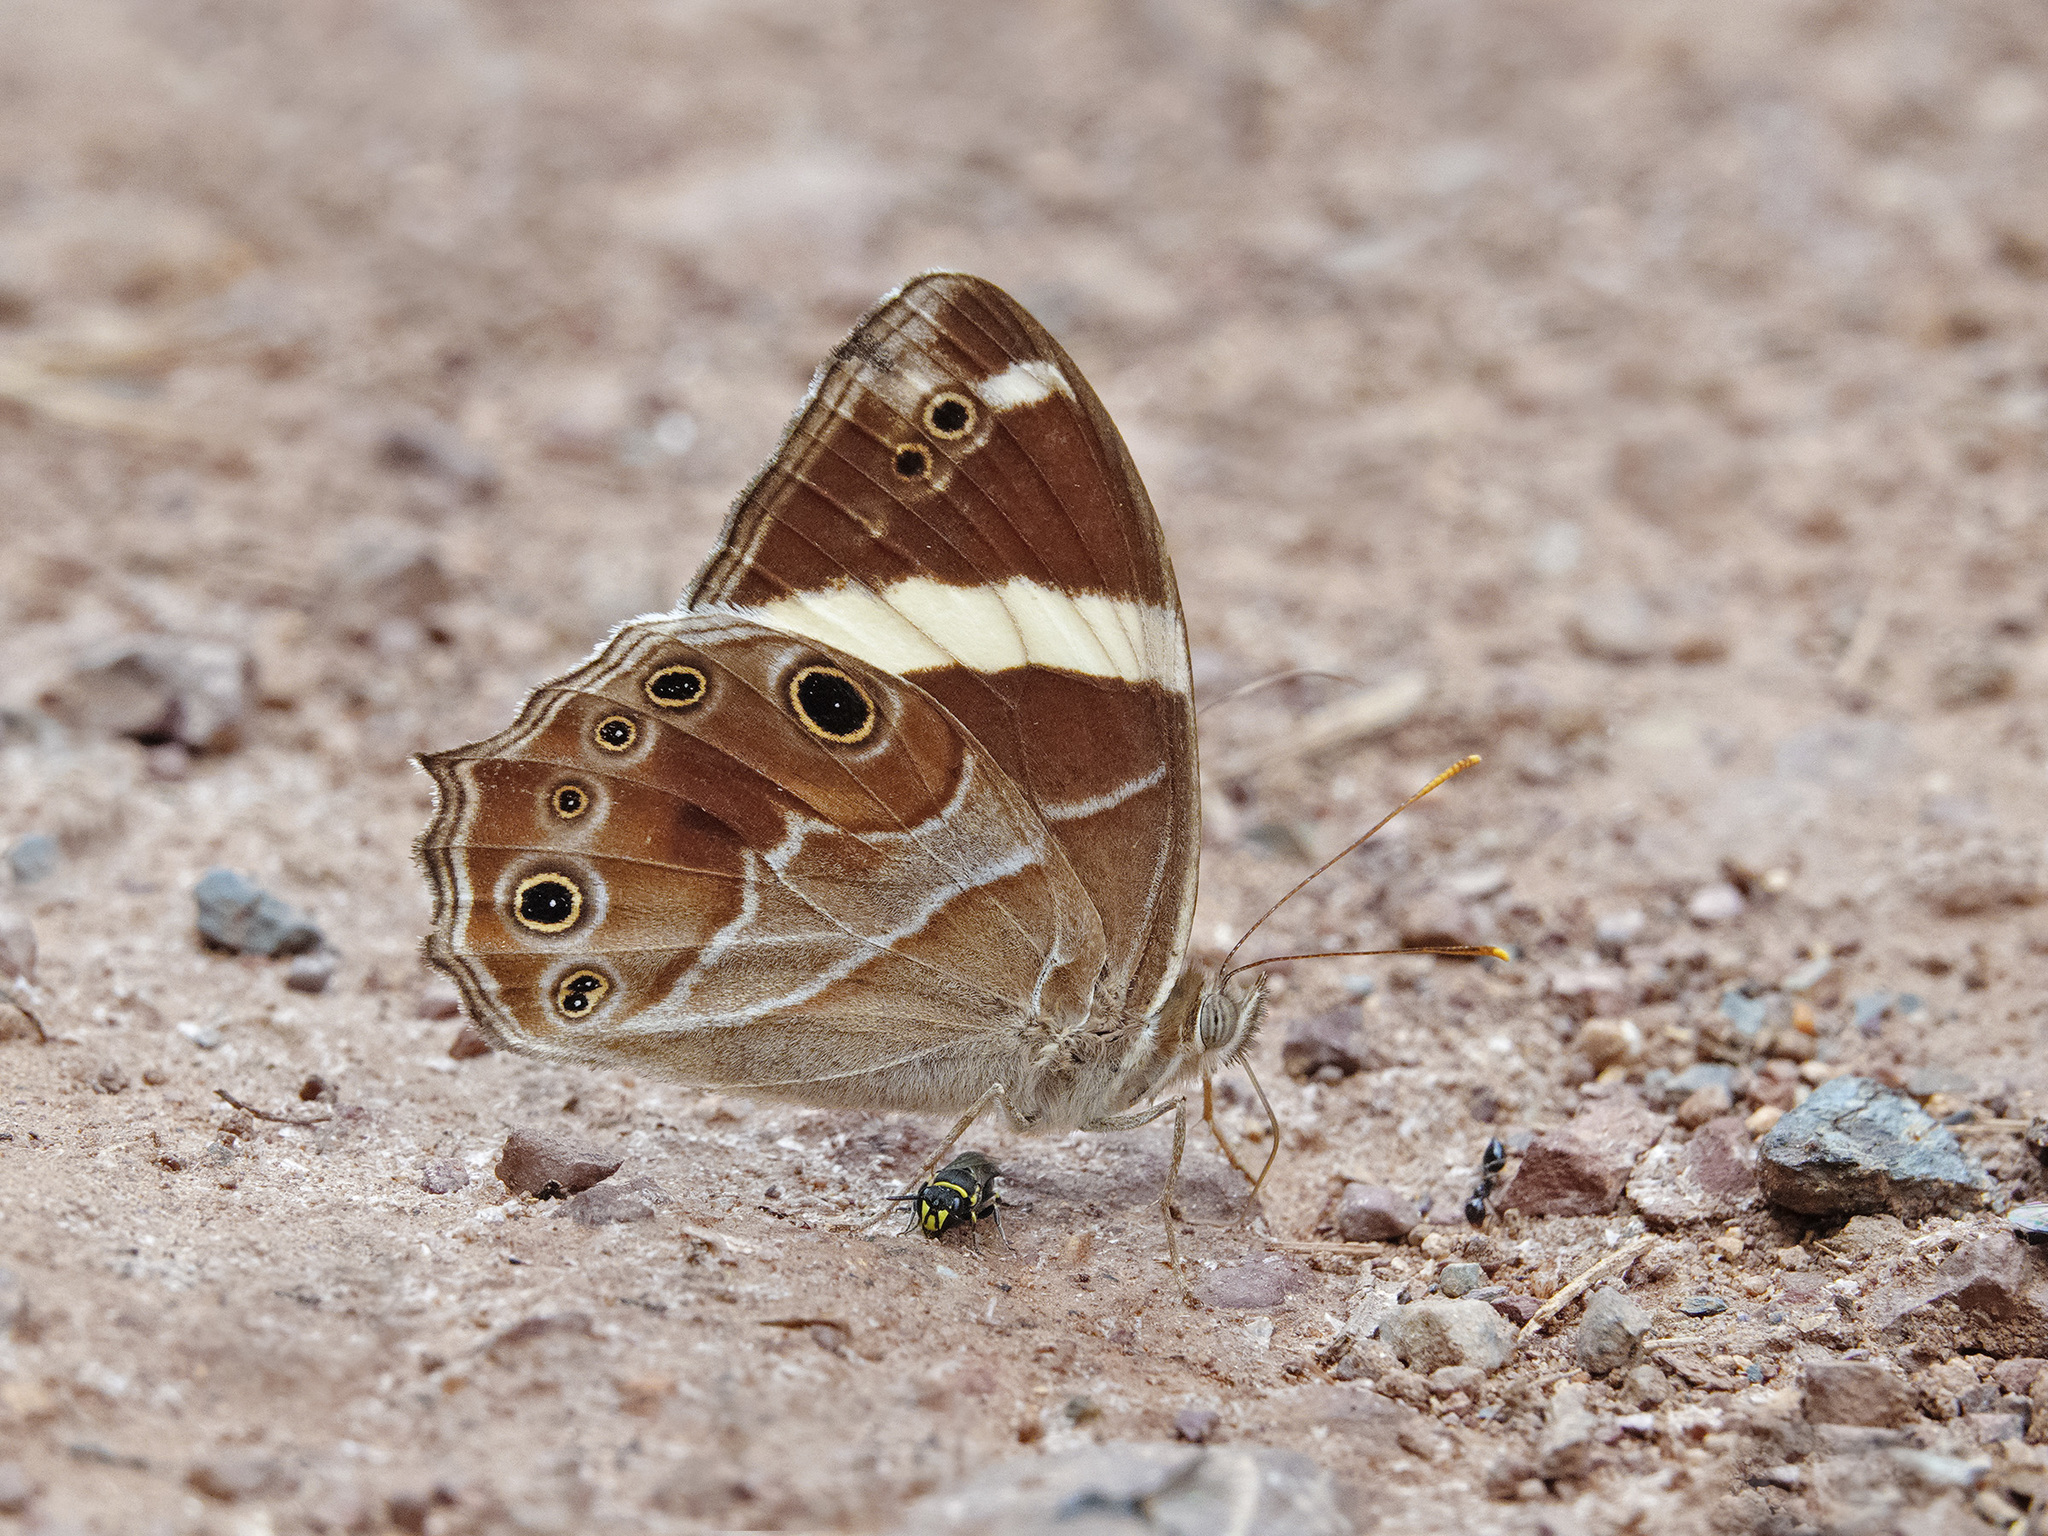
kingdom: Animalia
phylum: Arthropoda
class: Insecta
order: Lepidoptera
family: Nymphalidae
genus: Lethe
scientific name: Lethe confusa
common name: Banded treebrown
